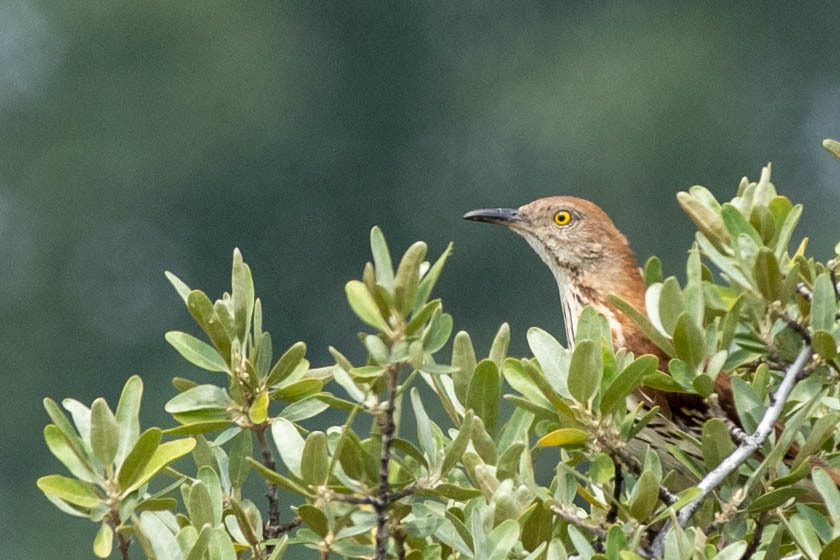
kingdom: Animalia
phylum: Chordata
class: Aves
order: Passeriformes
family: Mimidae
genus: Toxostoma
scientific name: Toxostoma rufum
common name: Brown thrasher
